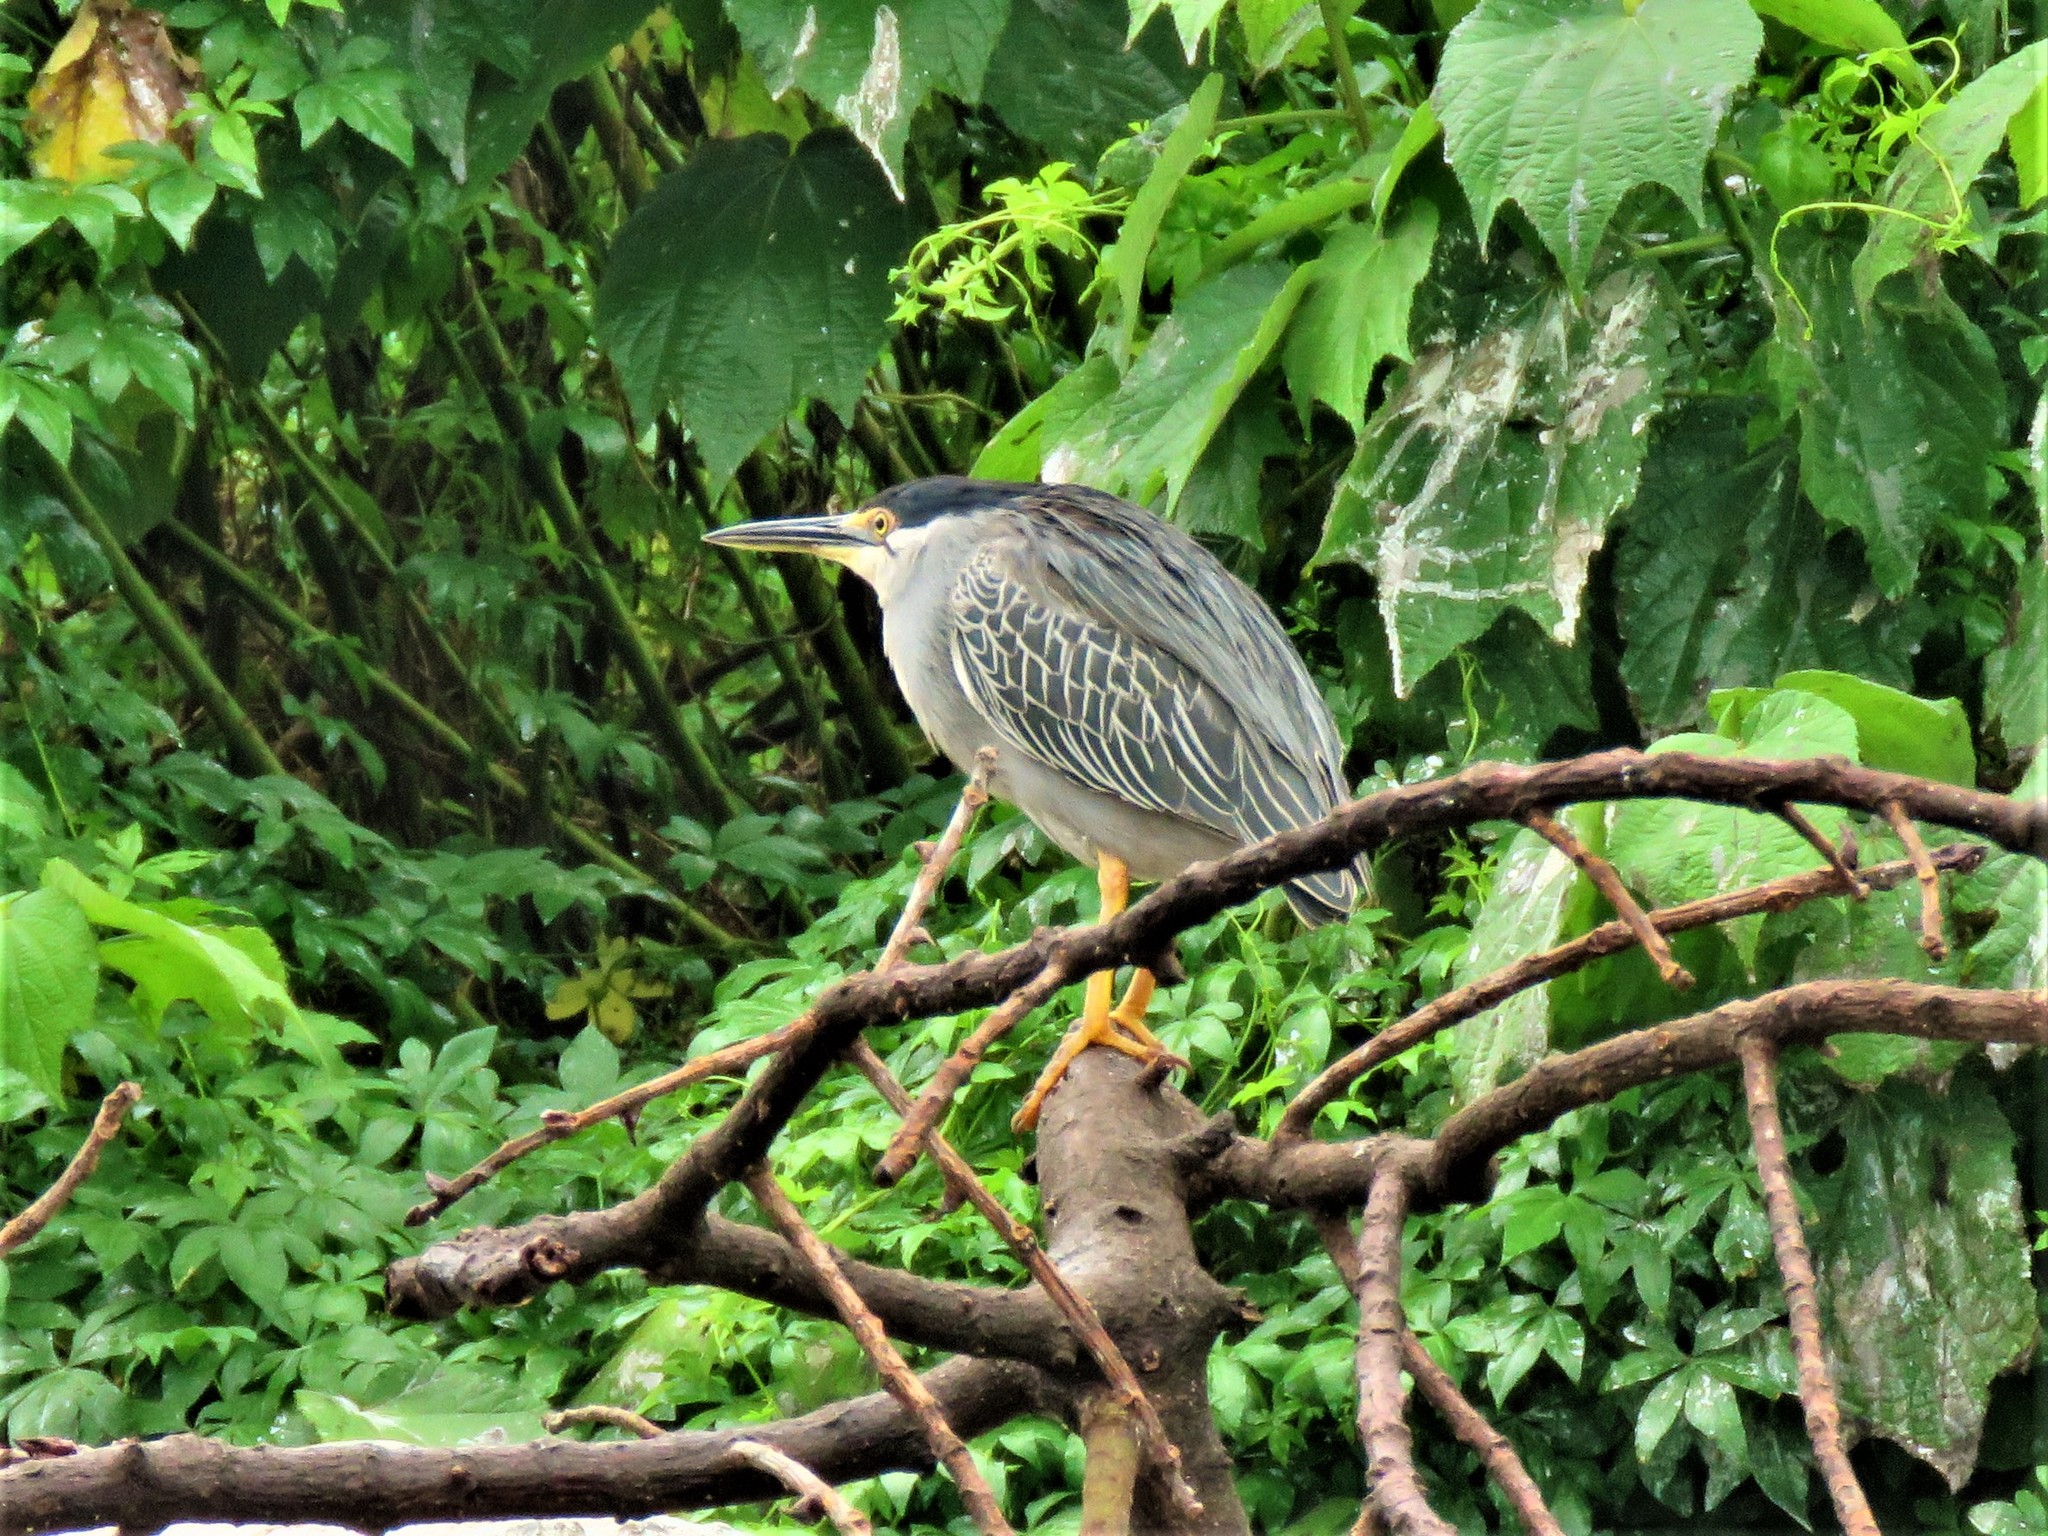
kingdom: Animalia
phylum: Chordata
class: Aves
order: Pelecaniformes
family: Ardeidae
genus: Butorides
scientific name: Butorides striata
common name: Striated heron
